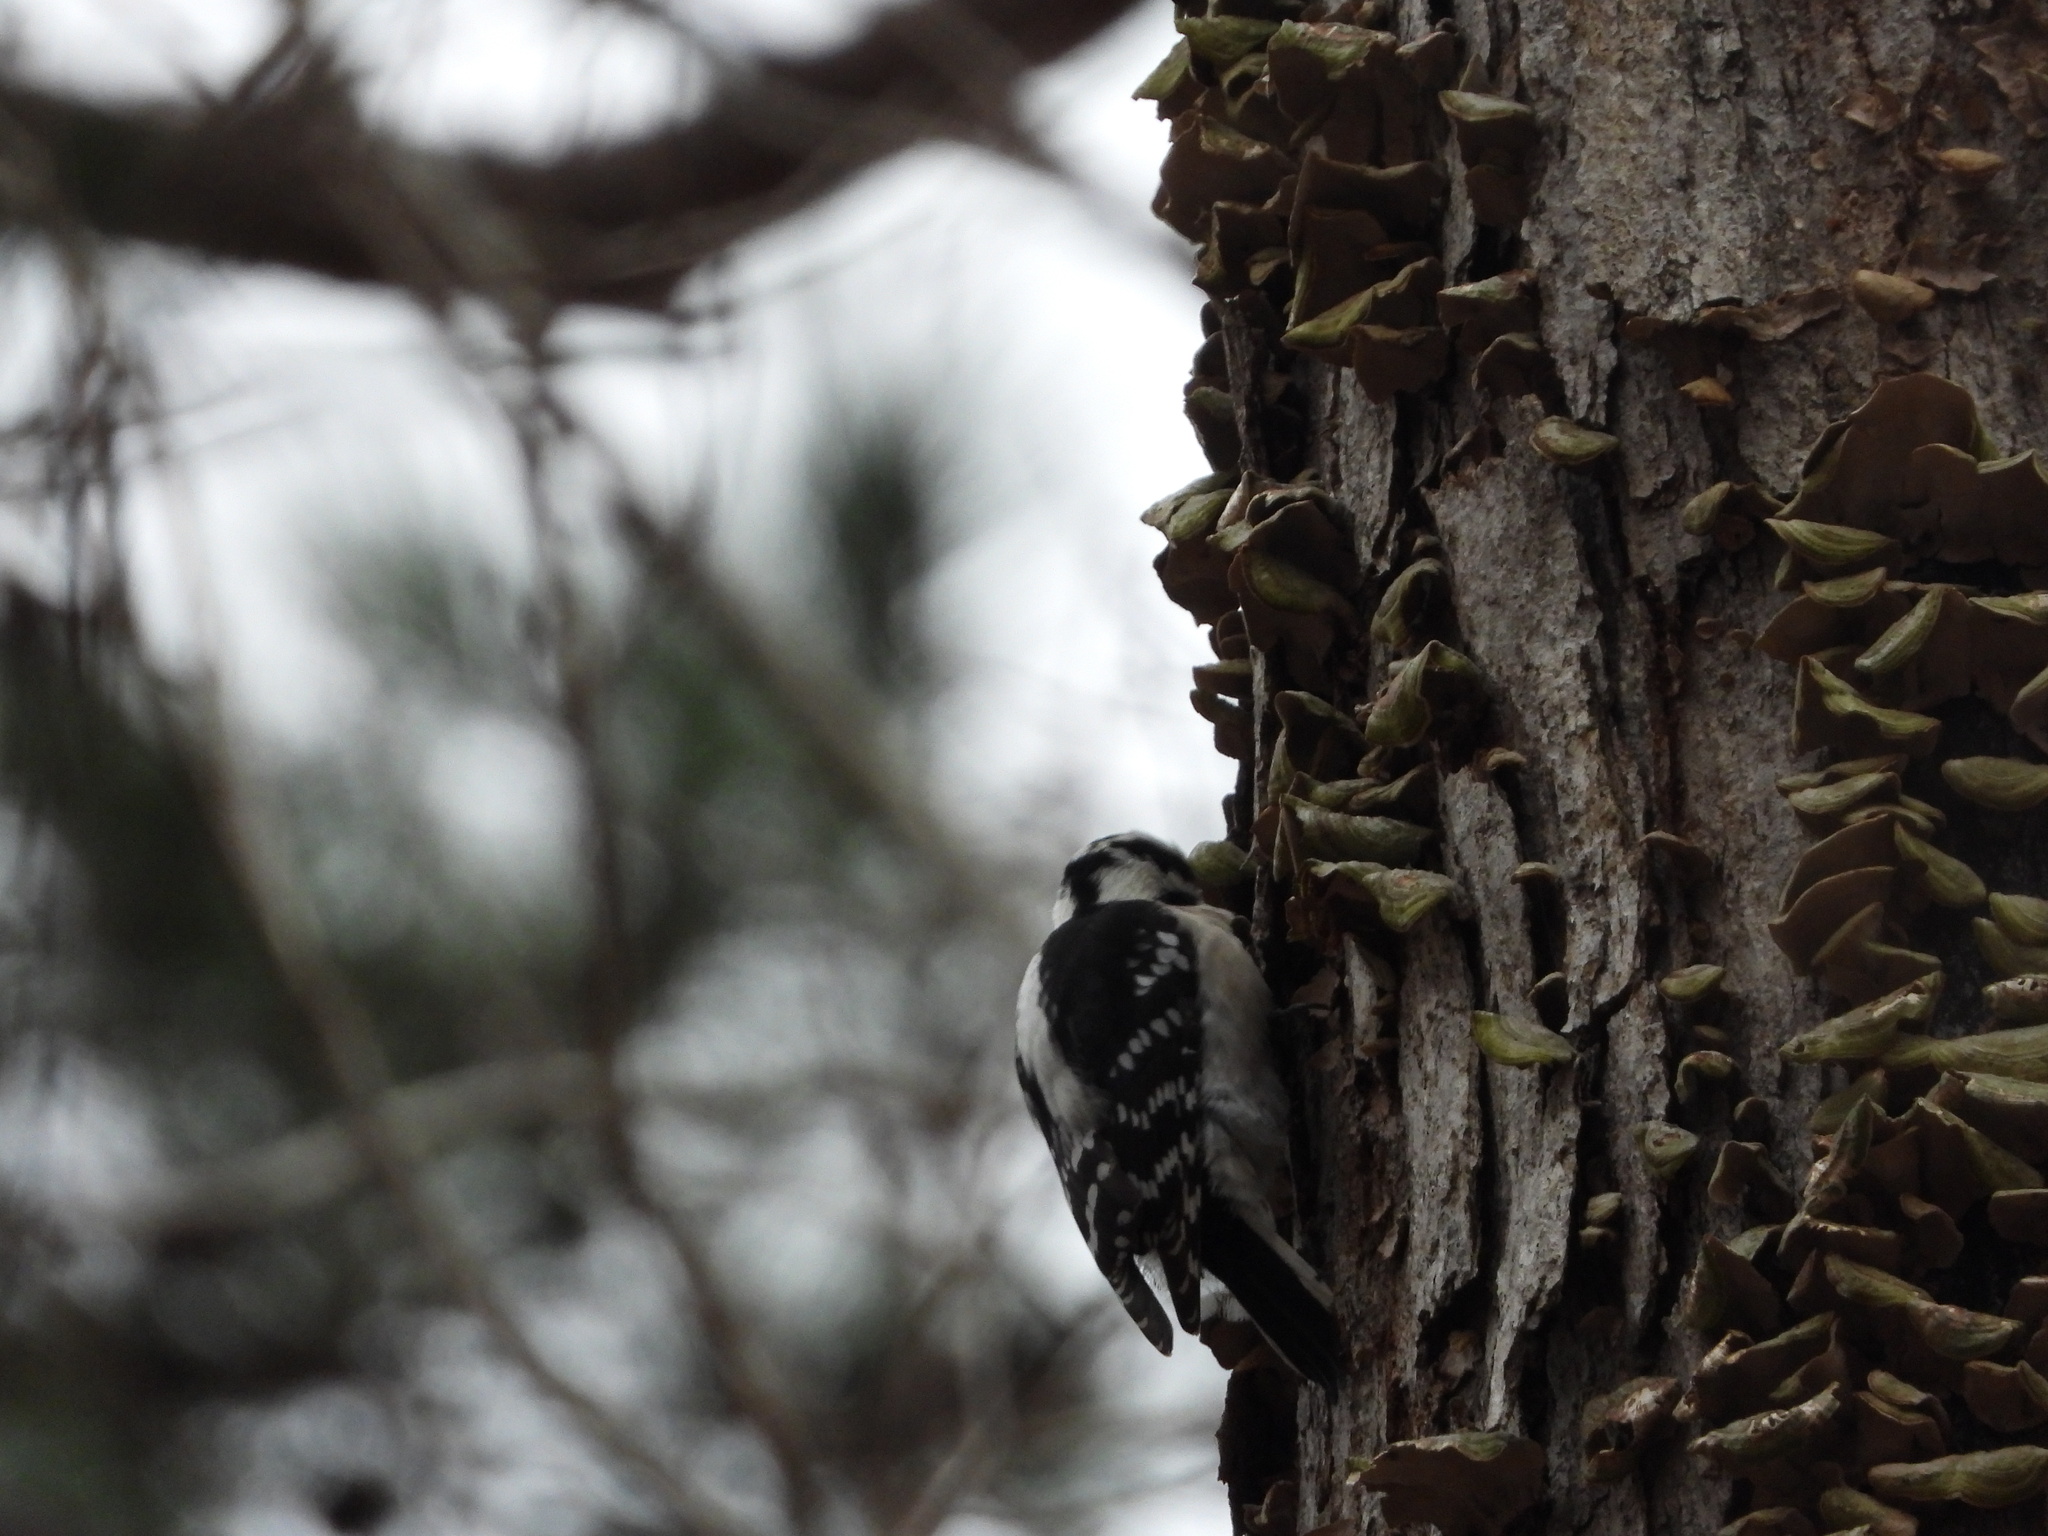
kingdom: Animalia
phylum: Chordata
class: Aves
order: Piciformes
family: Picidae
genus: Dryobates
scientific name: Dryobates pubescens
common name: Downy woodpecker
